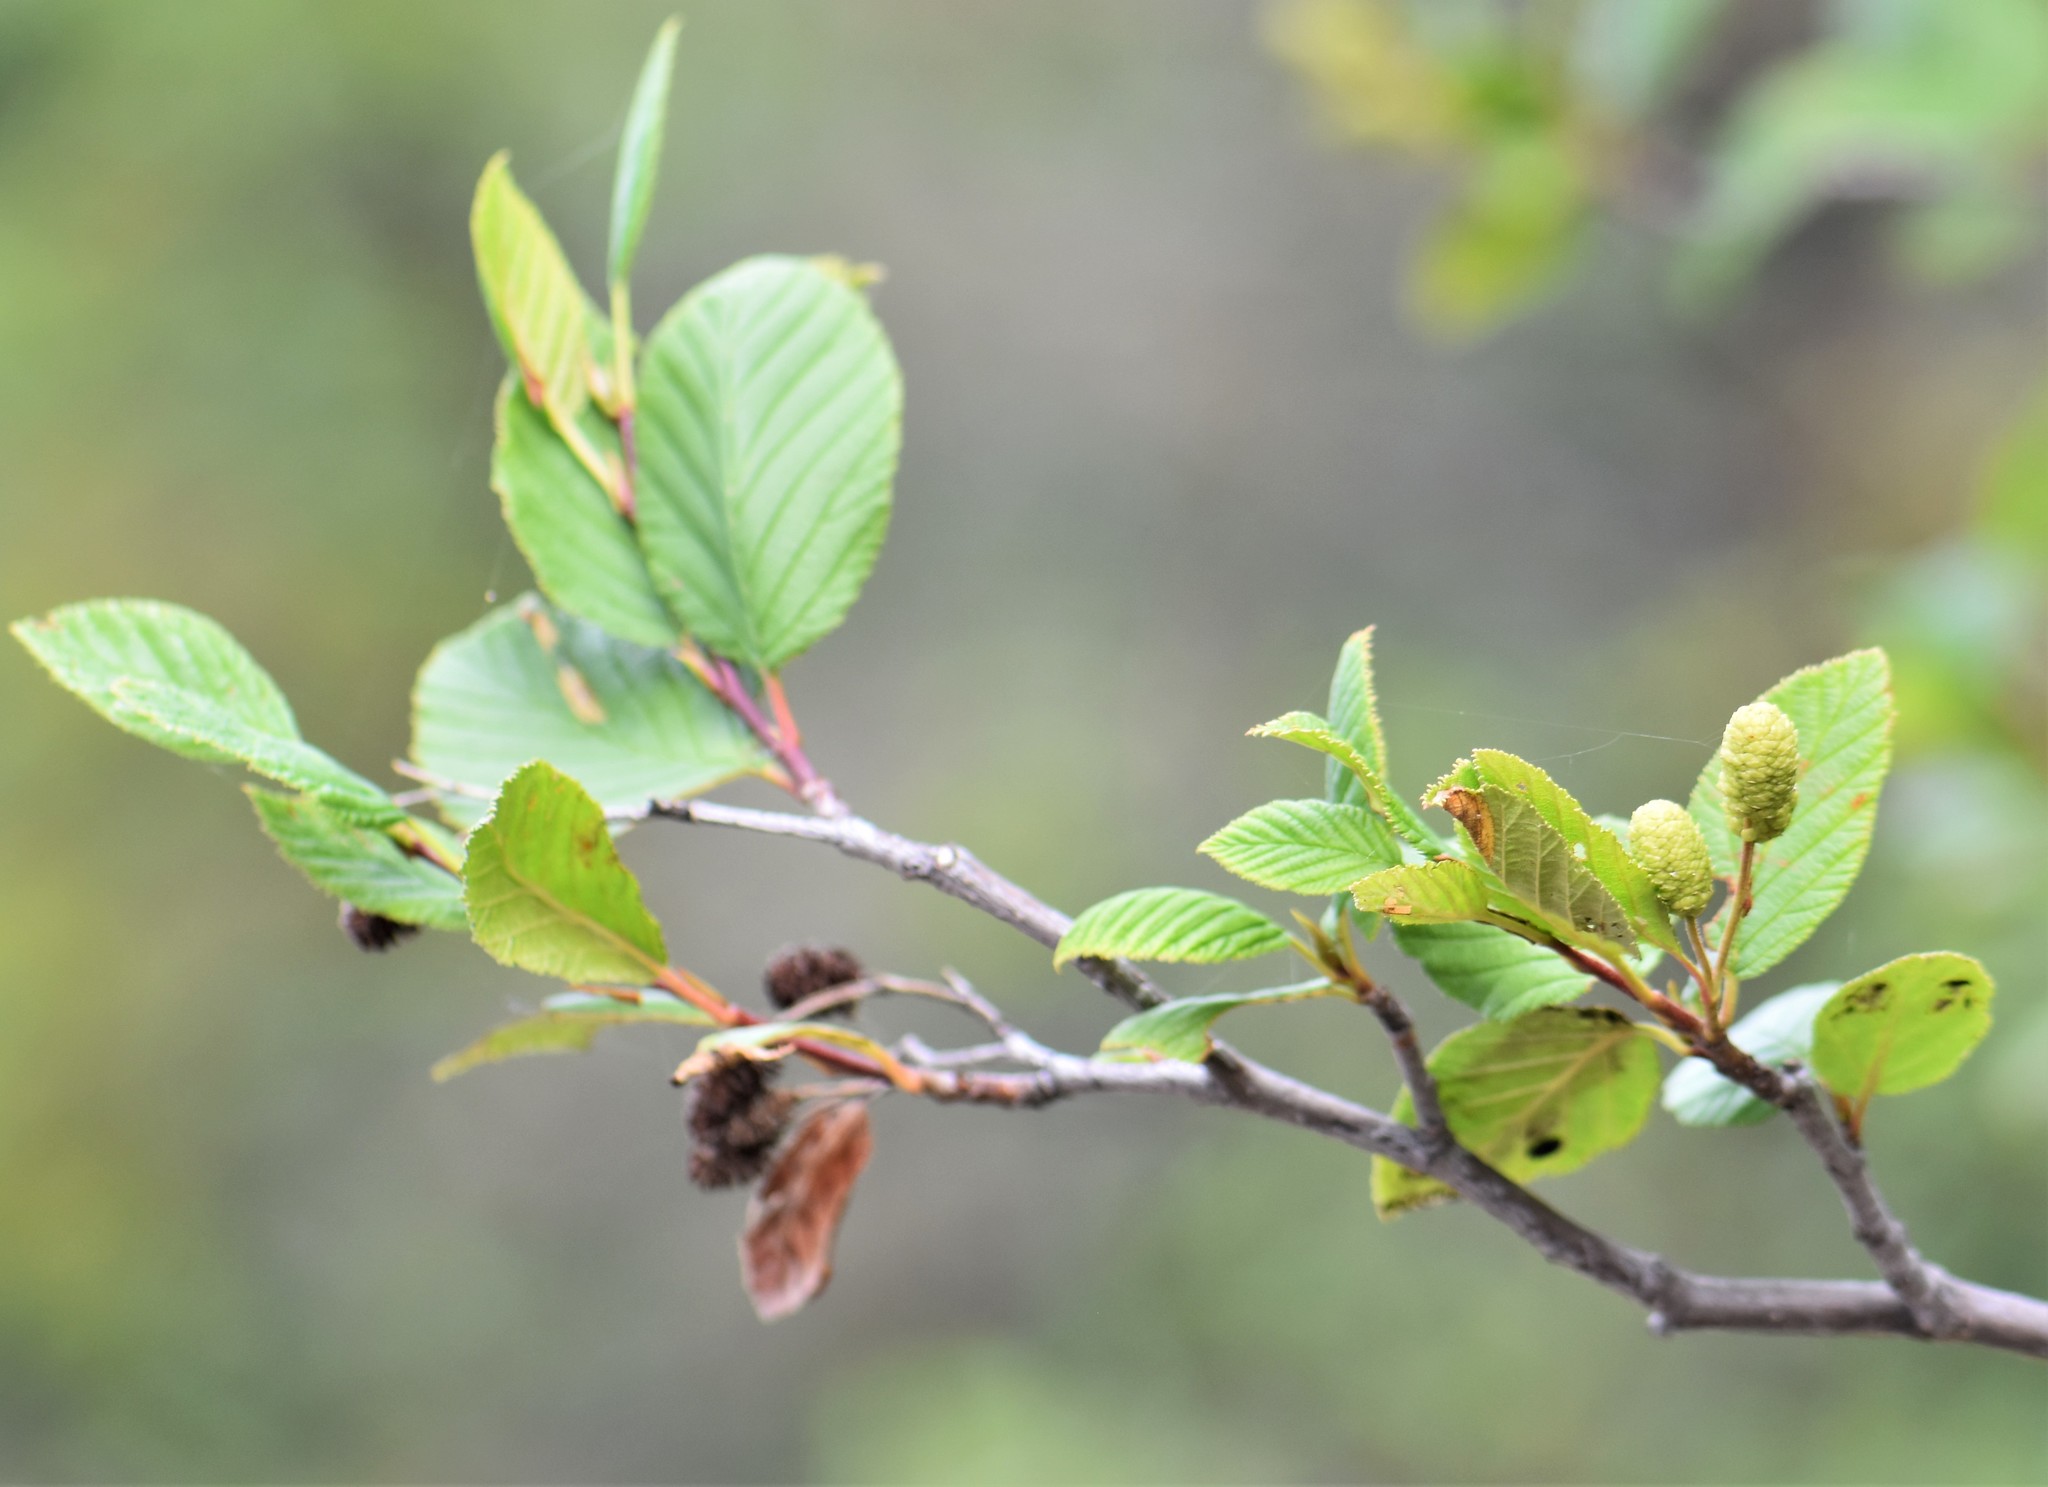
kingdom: Plantae
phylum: Tracheophyta
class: Magnoliopsida
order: Fagales
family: Betulaceae
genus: Alnus
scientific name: Alnus alnobetula
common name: Green alder
